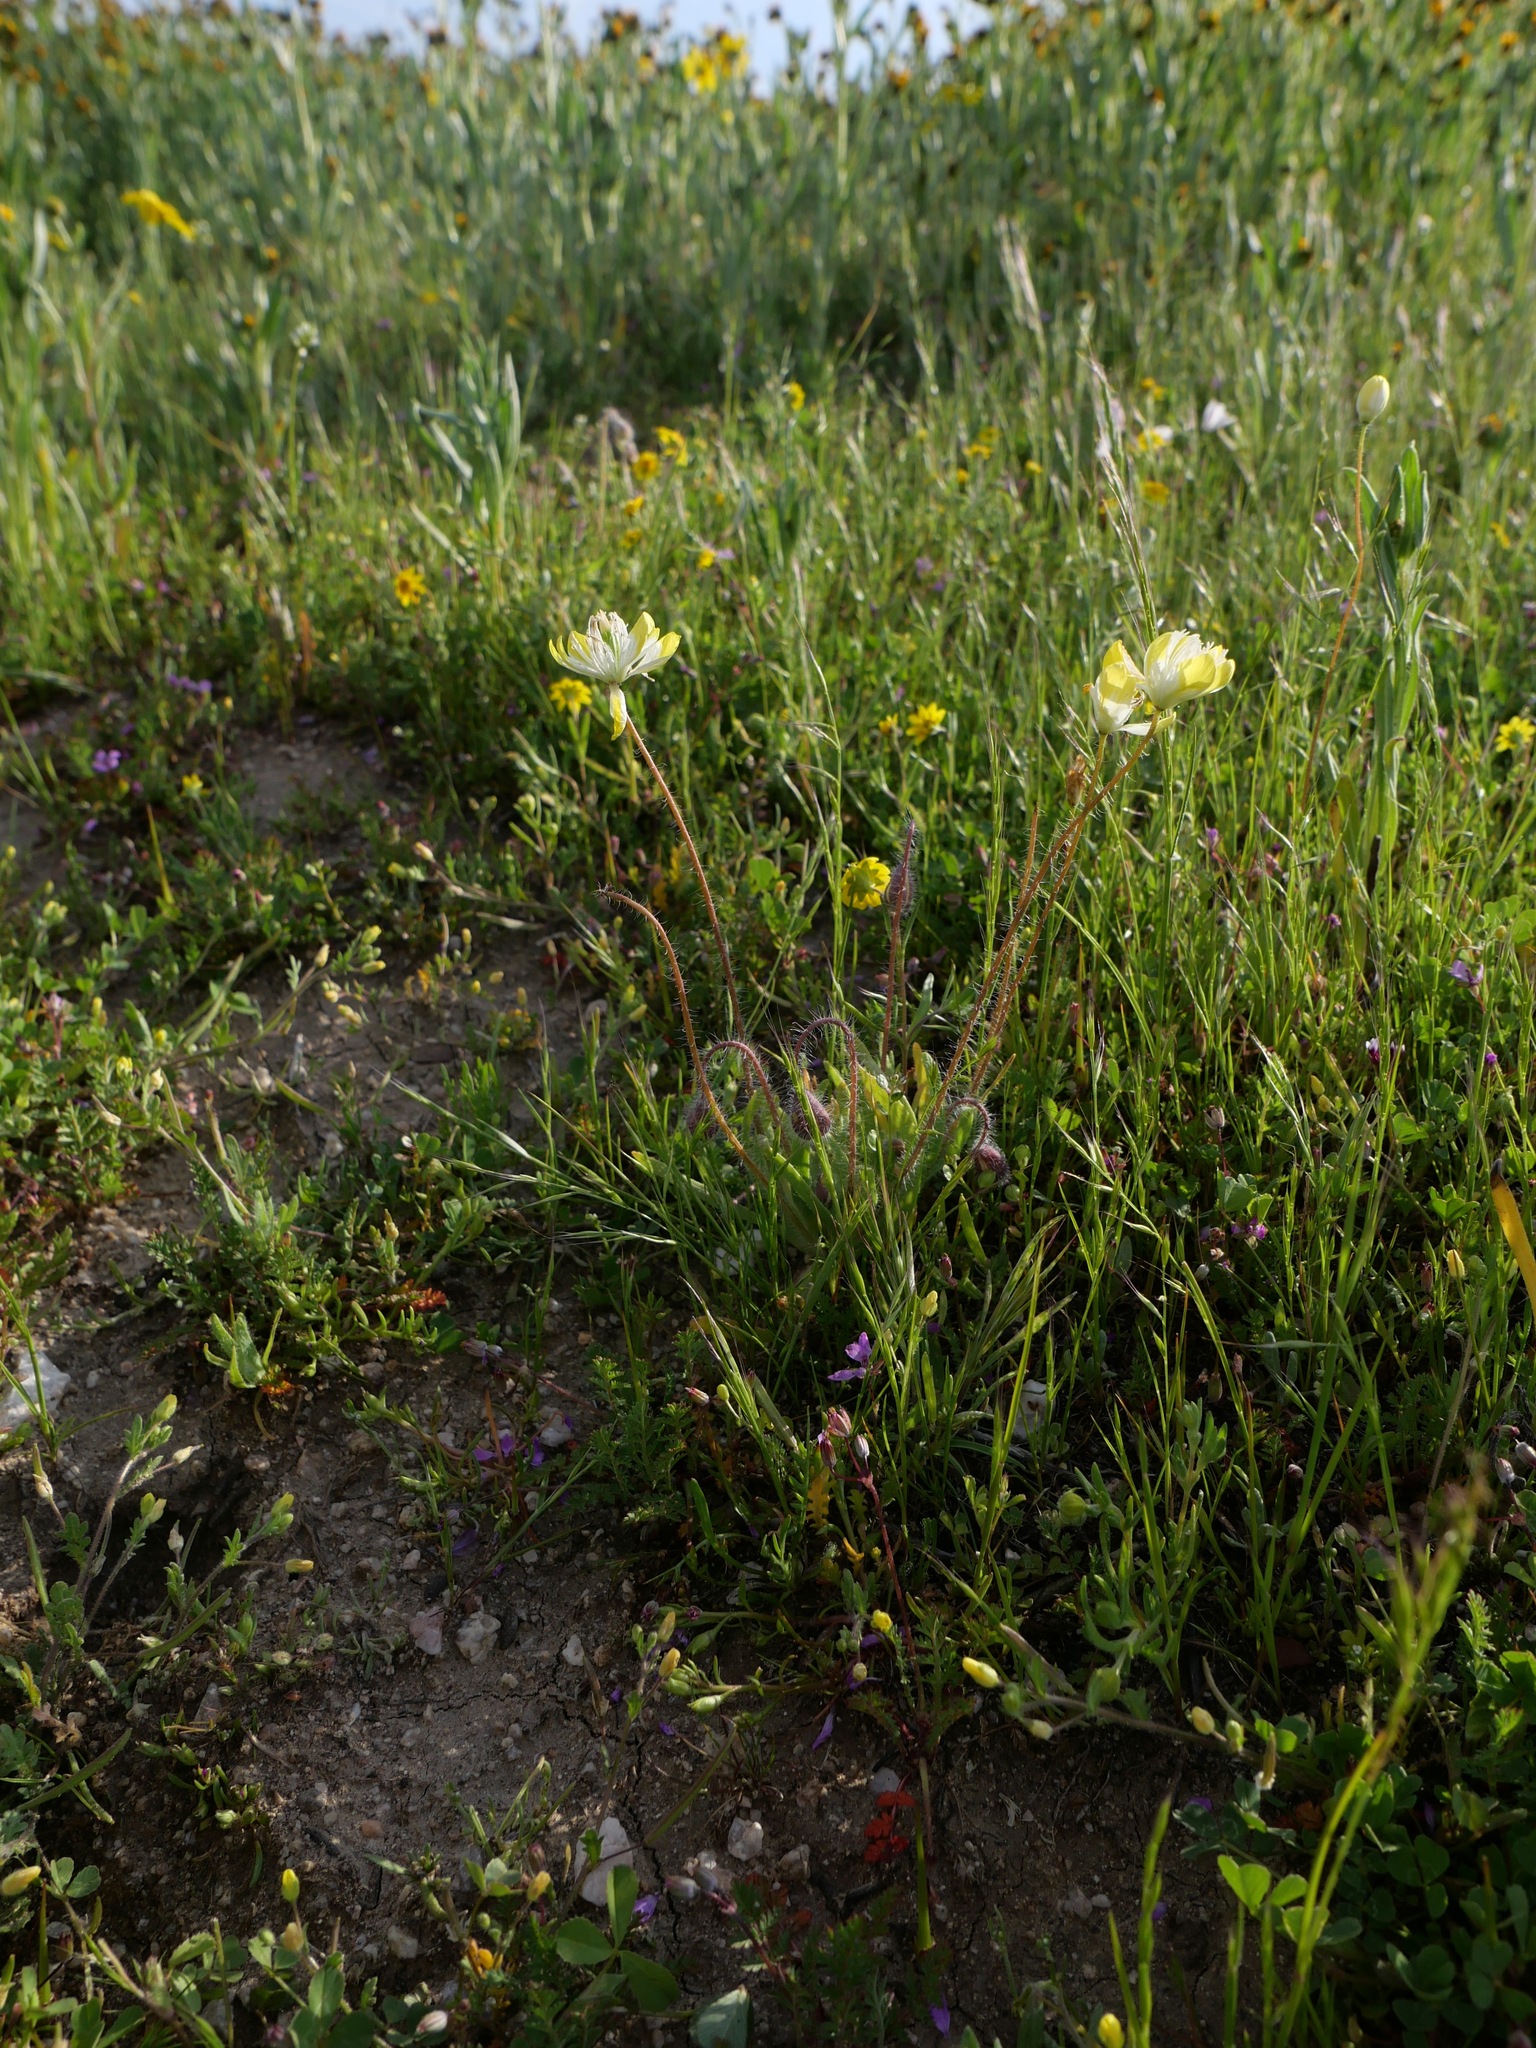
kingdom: Plantae
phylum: Tracheophyta
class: Magnoliopsida
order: Ranunculales
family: Papaveraceae
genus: Platystemon
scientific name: Platystemon californicus
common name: Cream-cups
